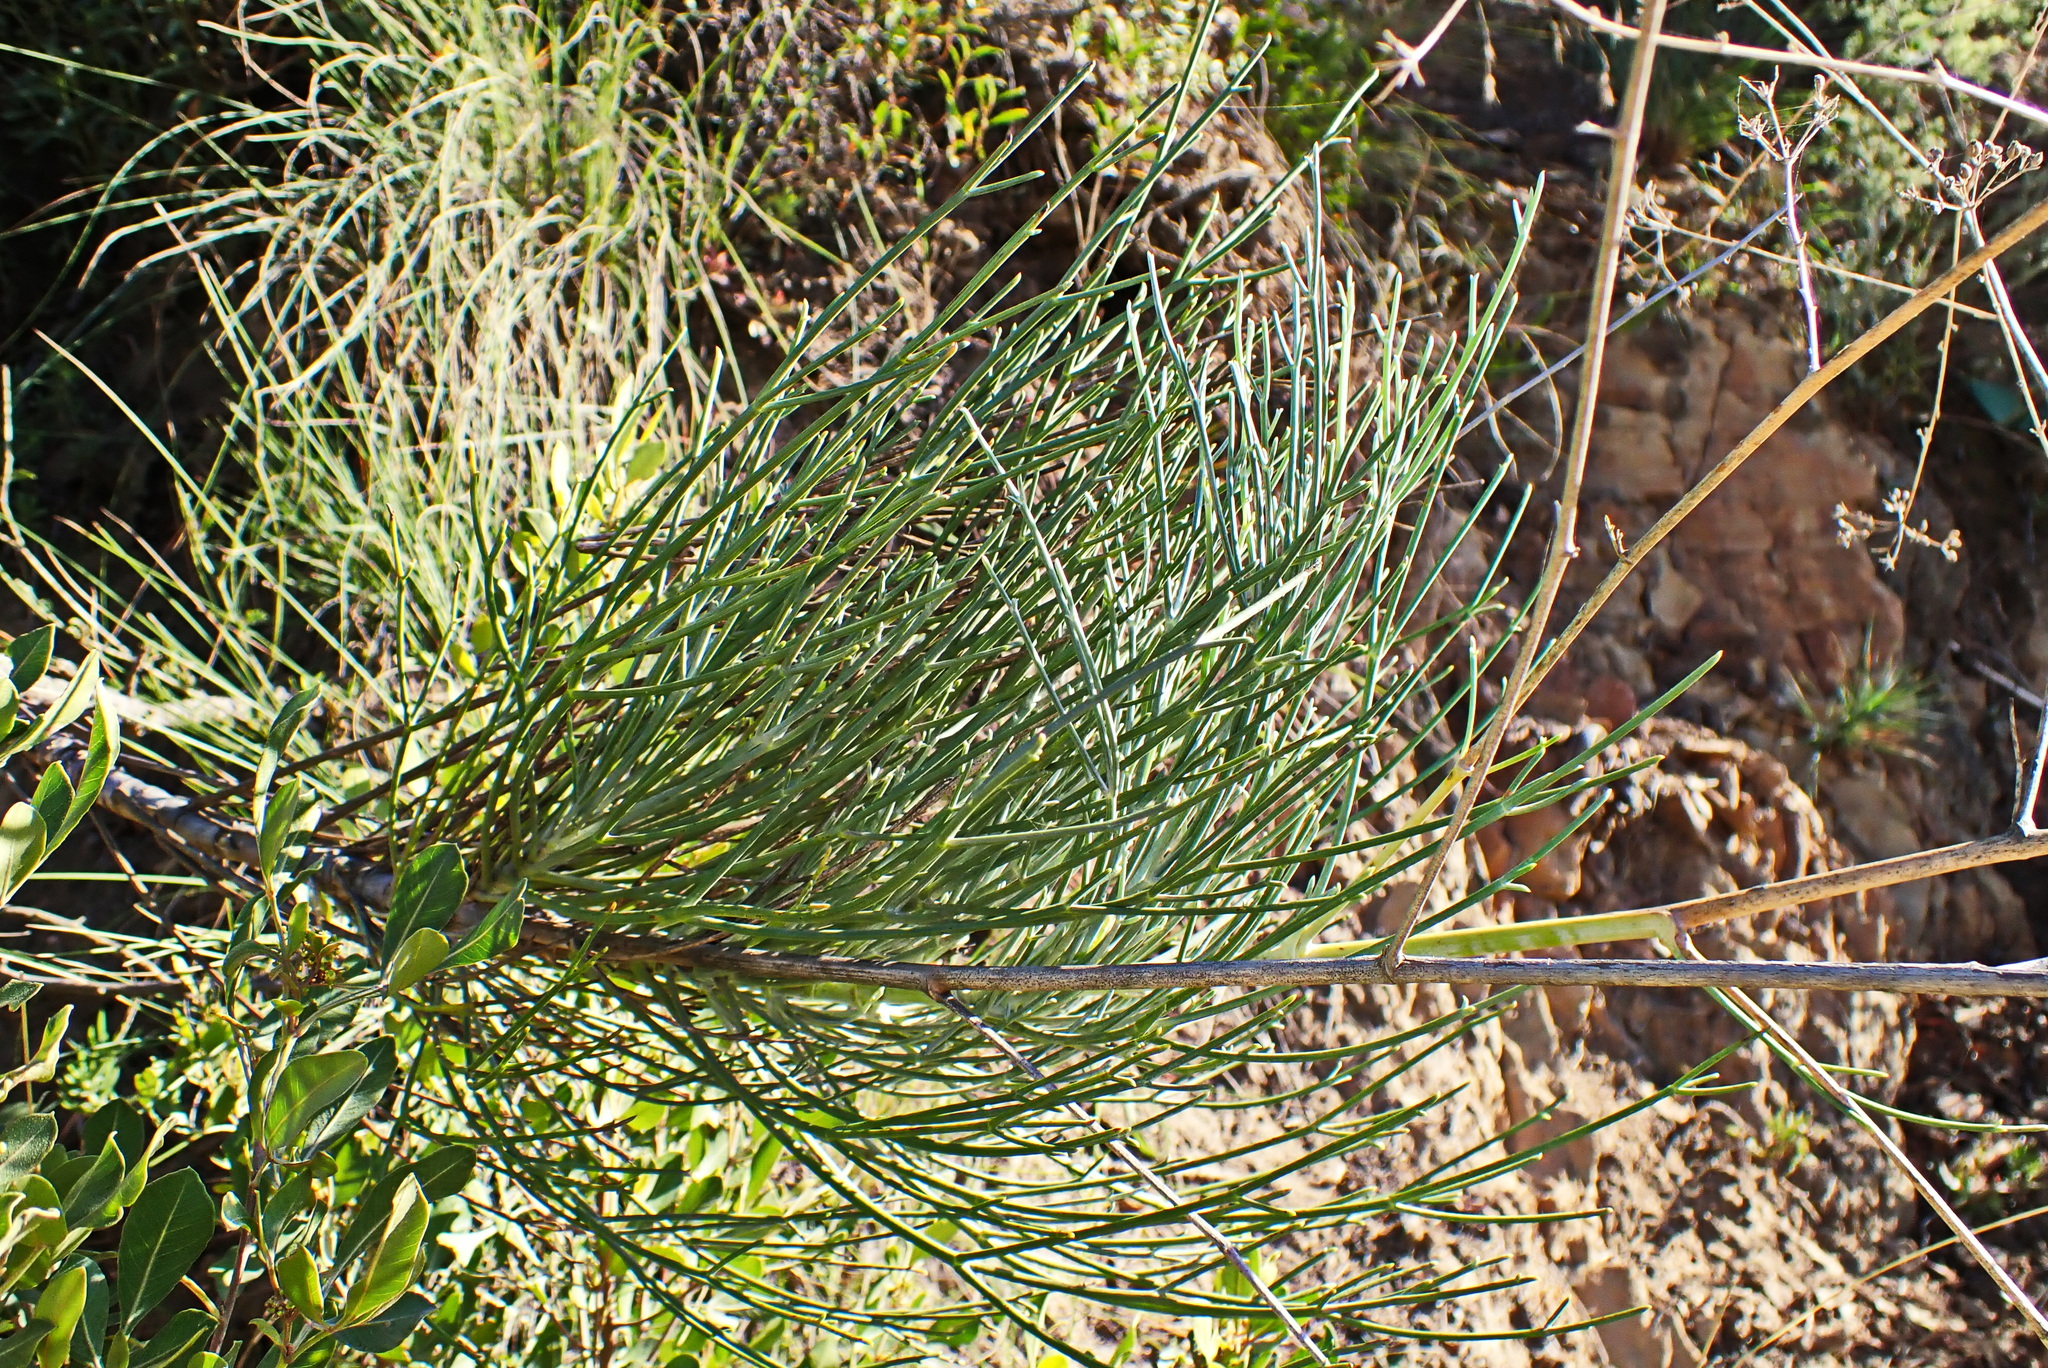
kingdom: Plantae
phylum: Tracheophyta
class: Magnoliopsida
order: Apiales
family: Apiaceae
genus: Anginon
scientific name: Anginon difforme
